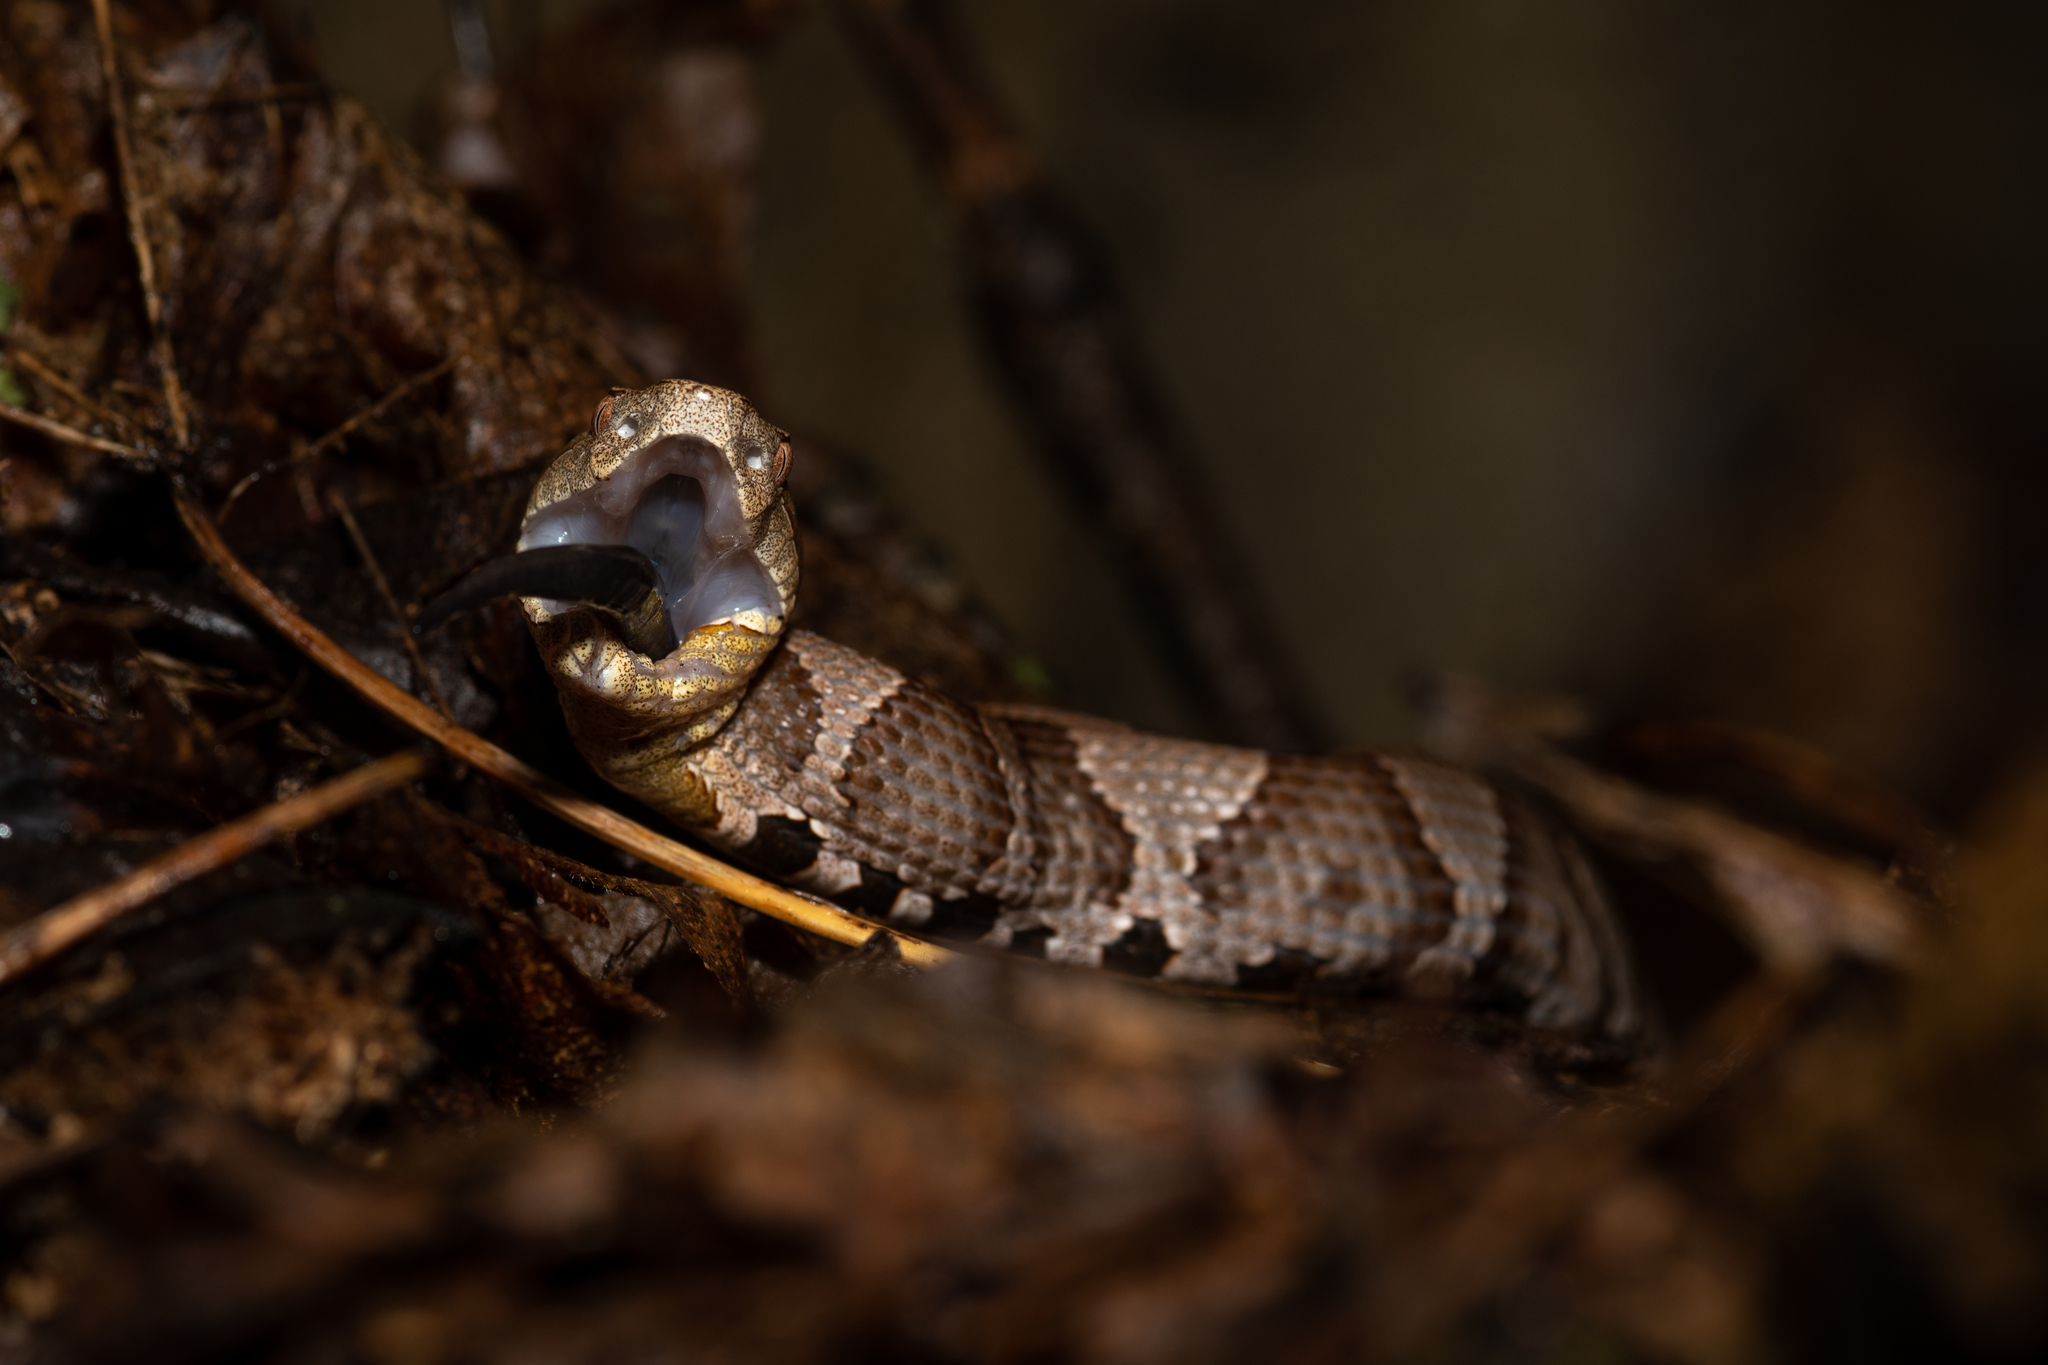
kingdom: Animalia
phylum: Chordata
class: Squamata
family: Viperidae
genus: Agkistrodon
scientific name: Agkistrodon contortrix
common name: Northern copperhead
